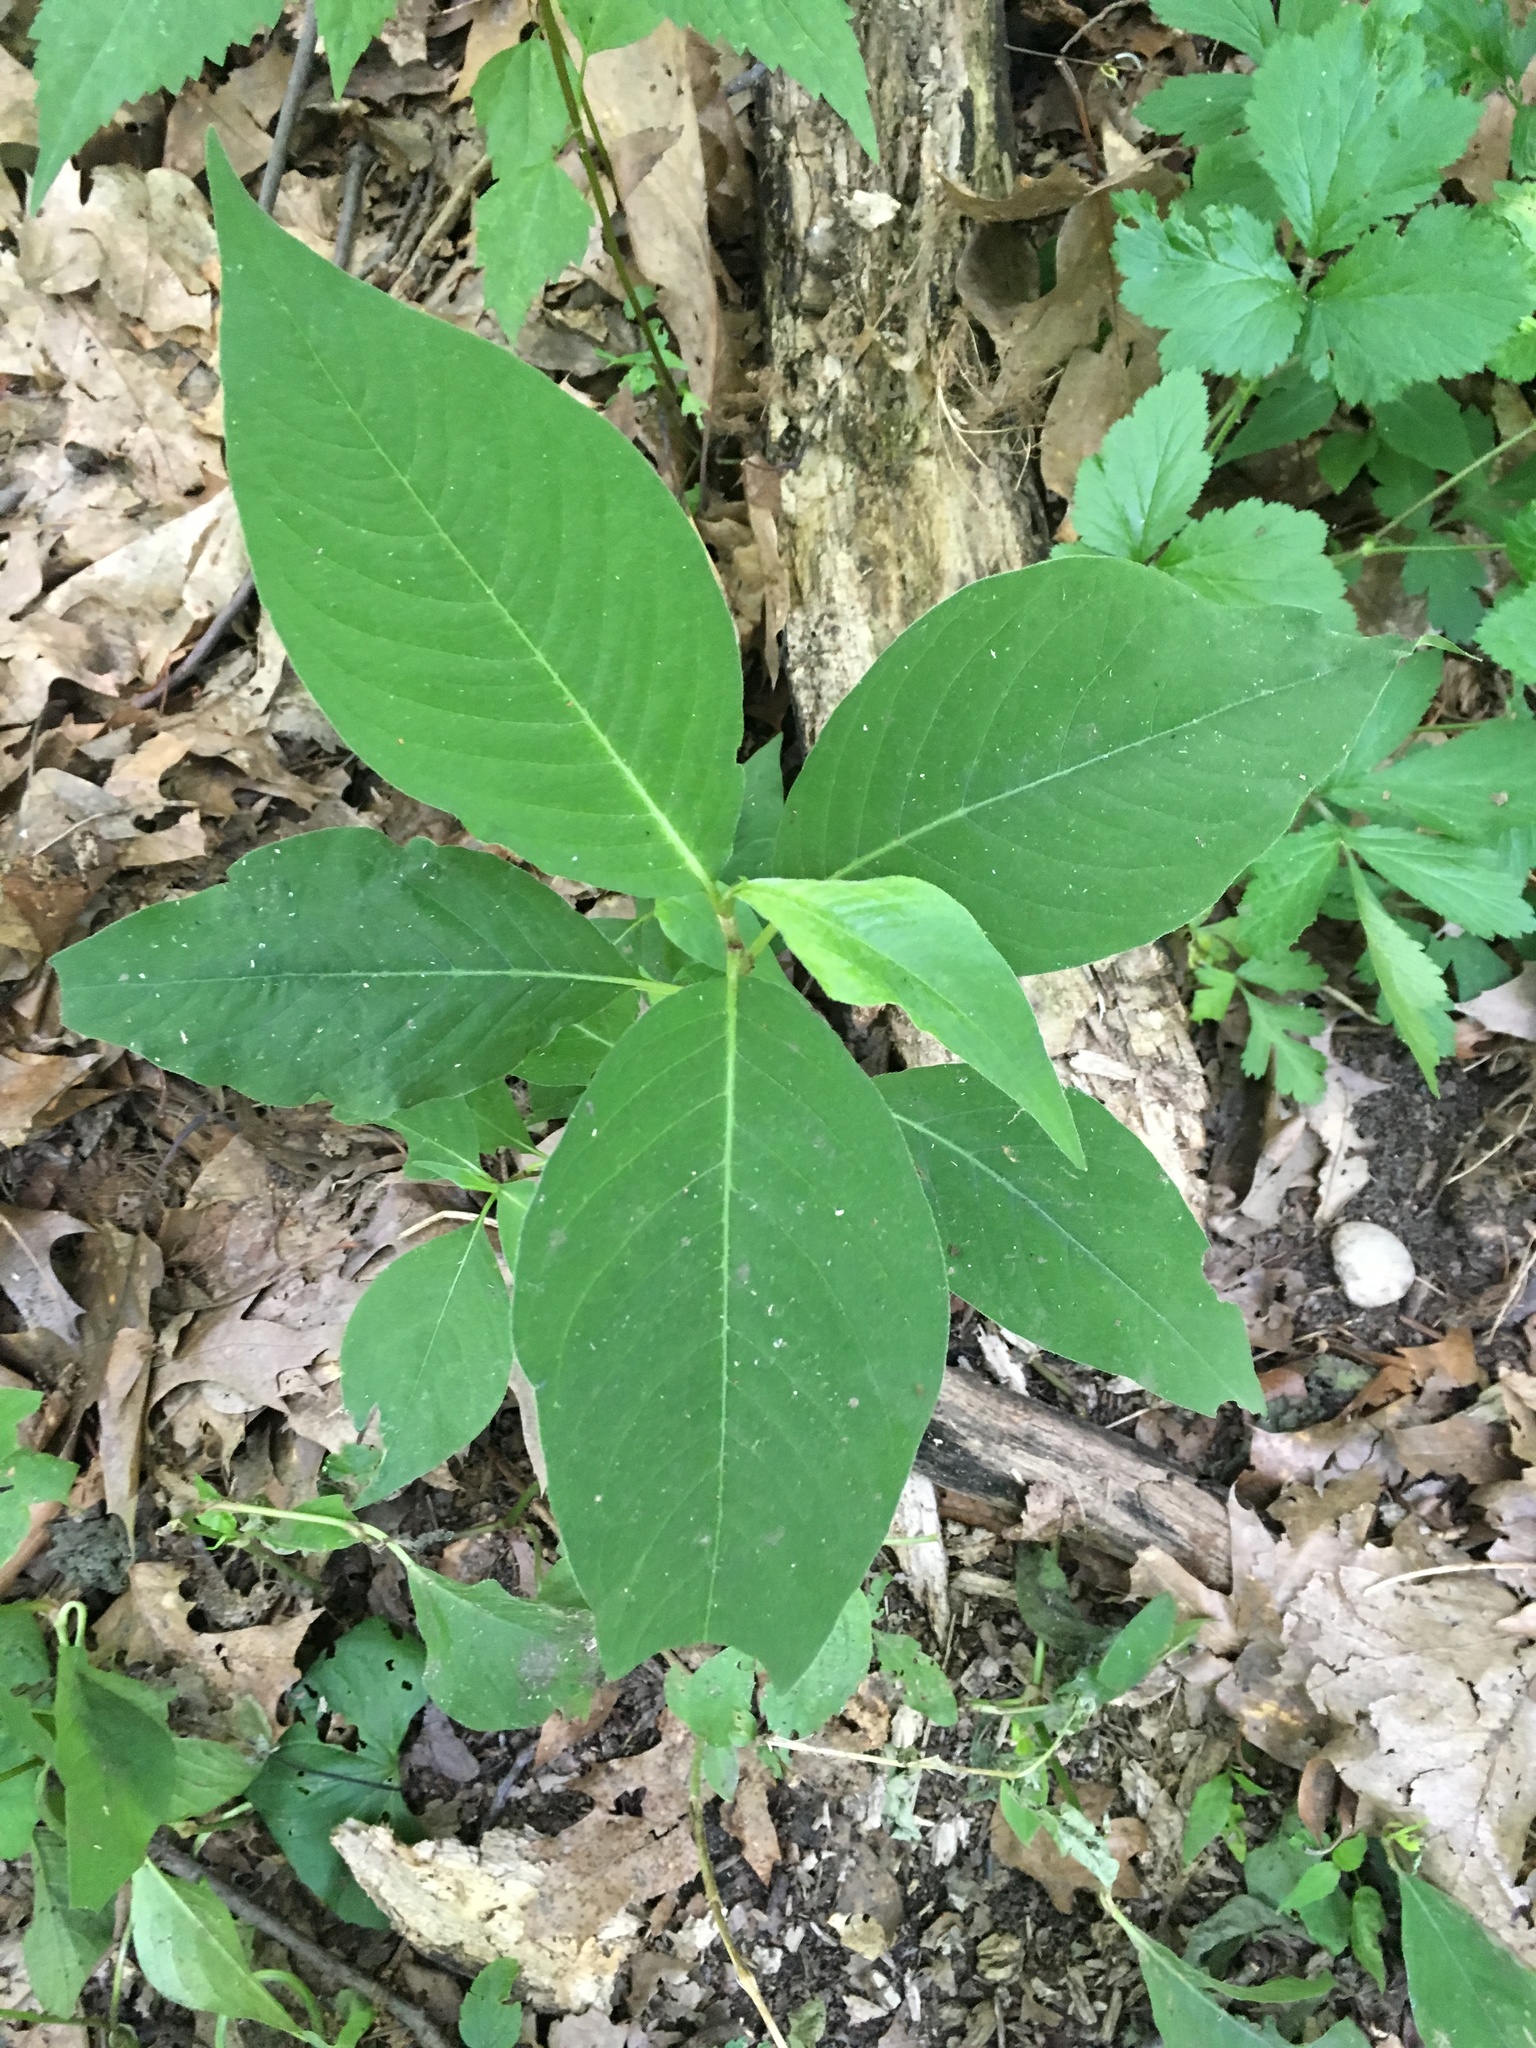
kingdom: Plantae
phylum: Tracheophyta
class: Magnoliopsida
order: Caryophyllales
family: Polygonaceae
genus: Persicaria
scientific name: Persicaria virginiana
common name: Jumpseed
